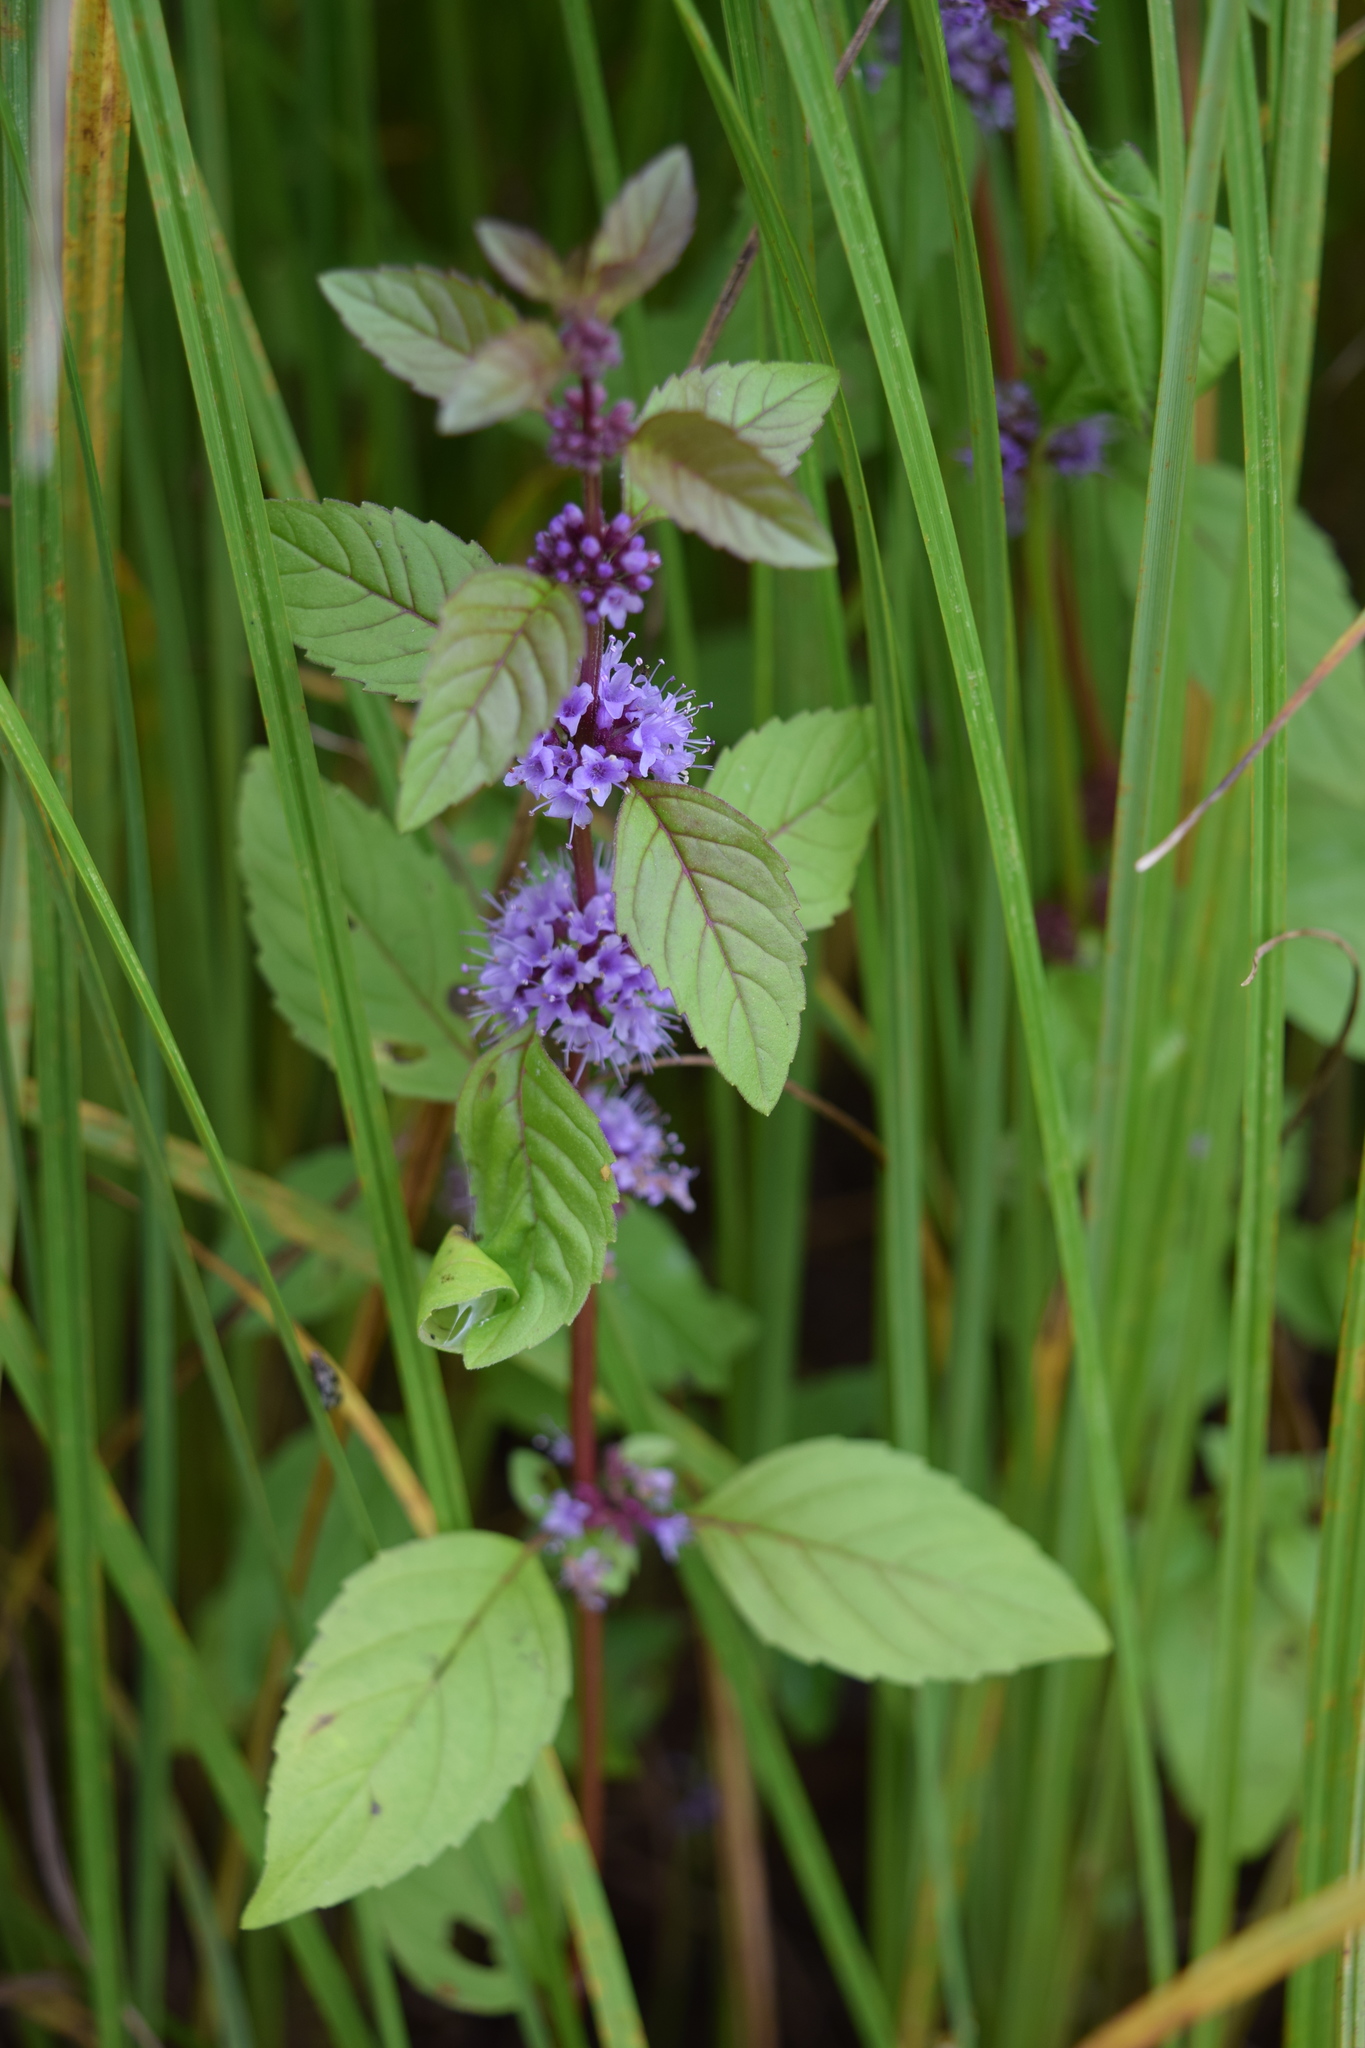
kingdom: Plantae
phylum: Tracheophyta
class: Magnoliopsida
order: Lamiales
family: Lamiaceae
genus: Mentha
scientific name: Mentha arvensis
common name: Corn mint
